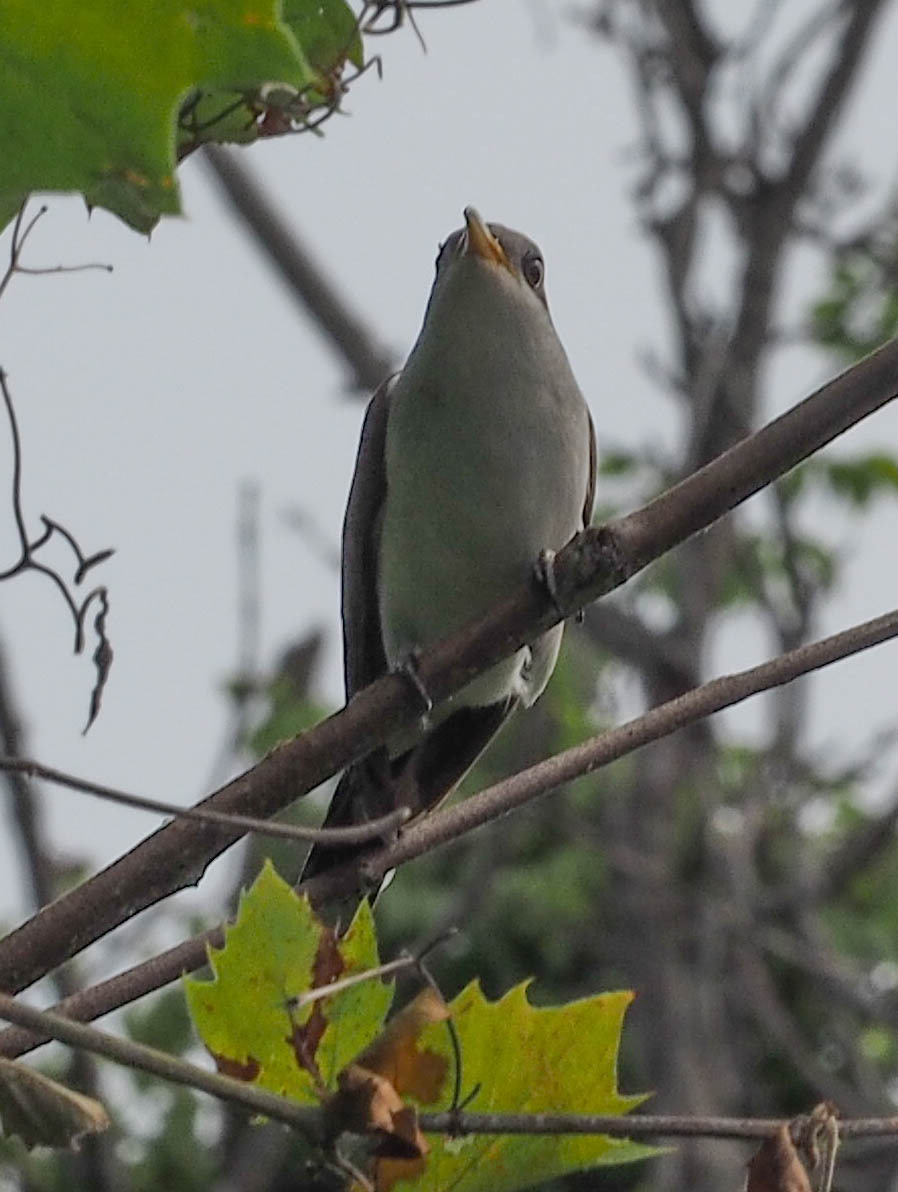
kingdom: Animalia
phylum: Chordata
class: Aves
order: Cuculiformes
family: Cuculidae
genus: Coccyzus
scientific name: Coccyzus americanus
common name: Yellow-billed cuckoo
